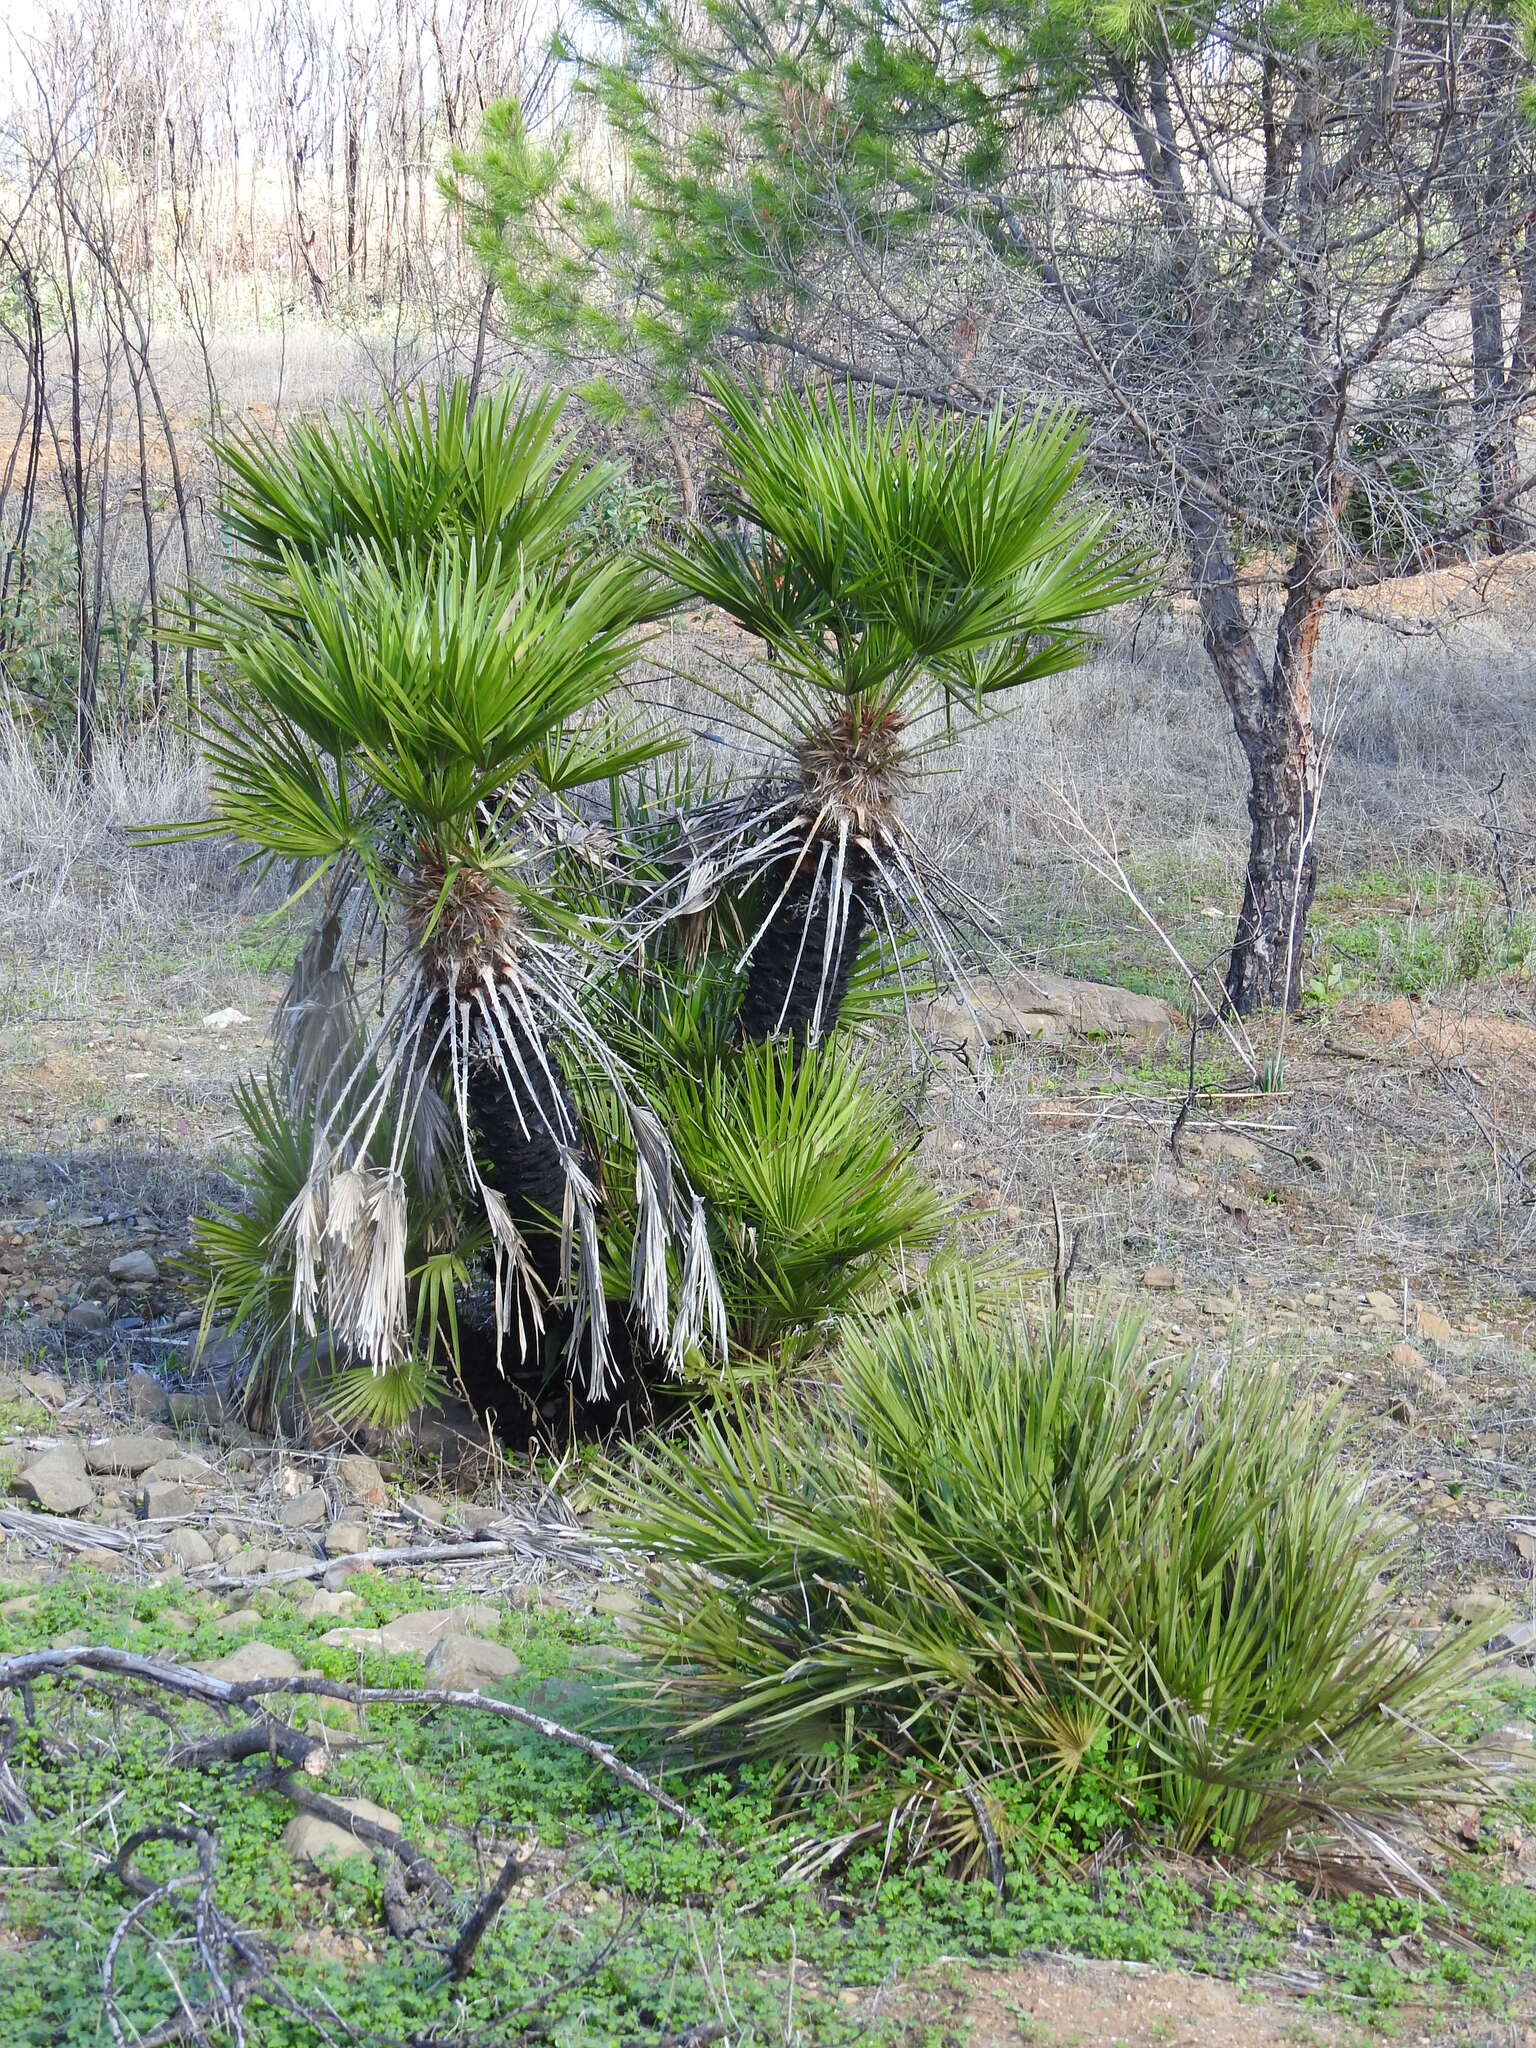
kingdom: Plantae
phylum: Tracheophyta
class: Liliopsida
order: Arecales
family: Arecaceae
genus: Chamaerops
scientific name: Chamaerops humilis
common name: Dwarf fan palm
